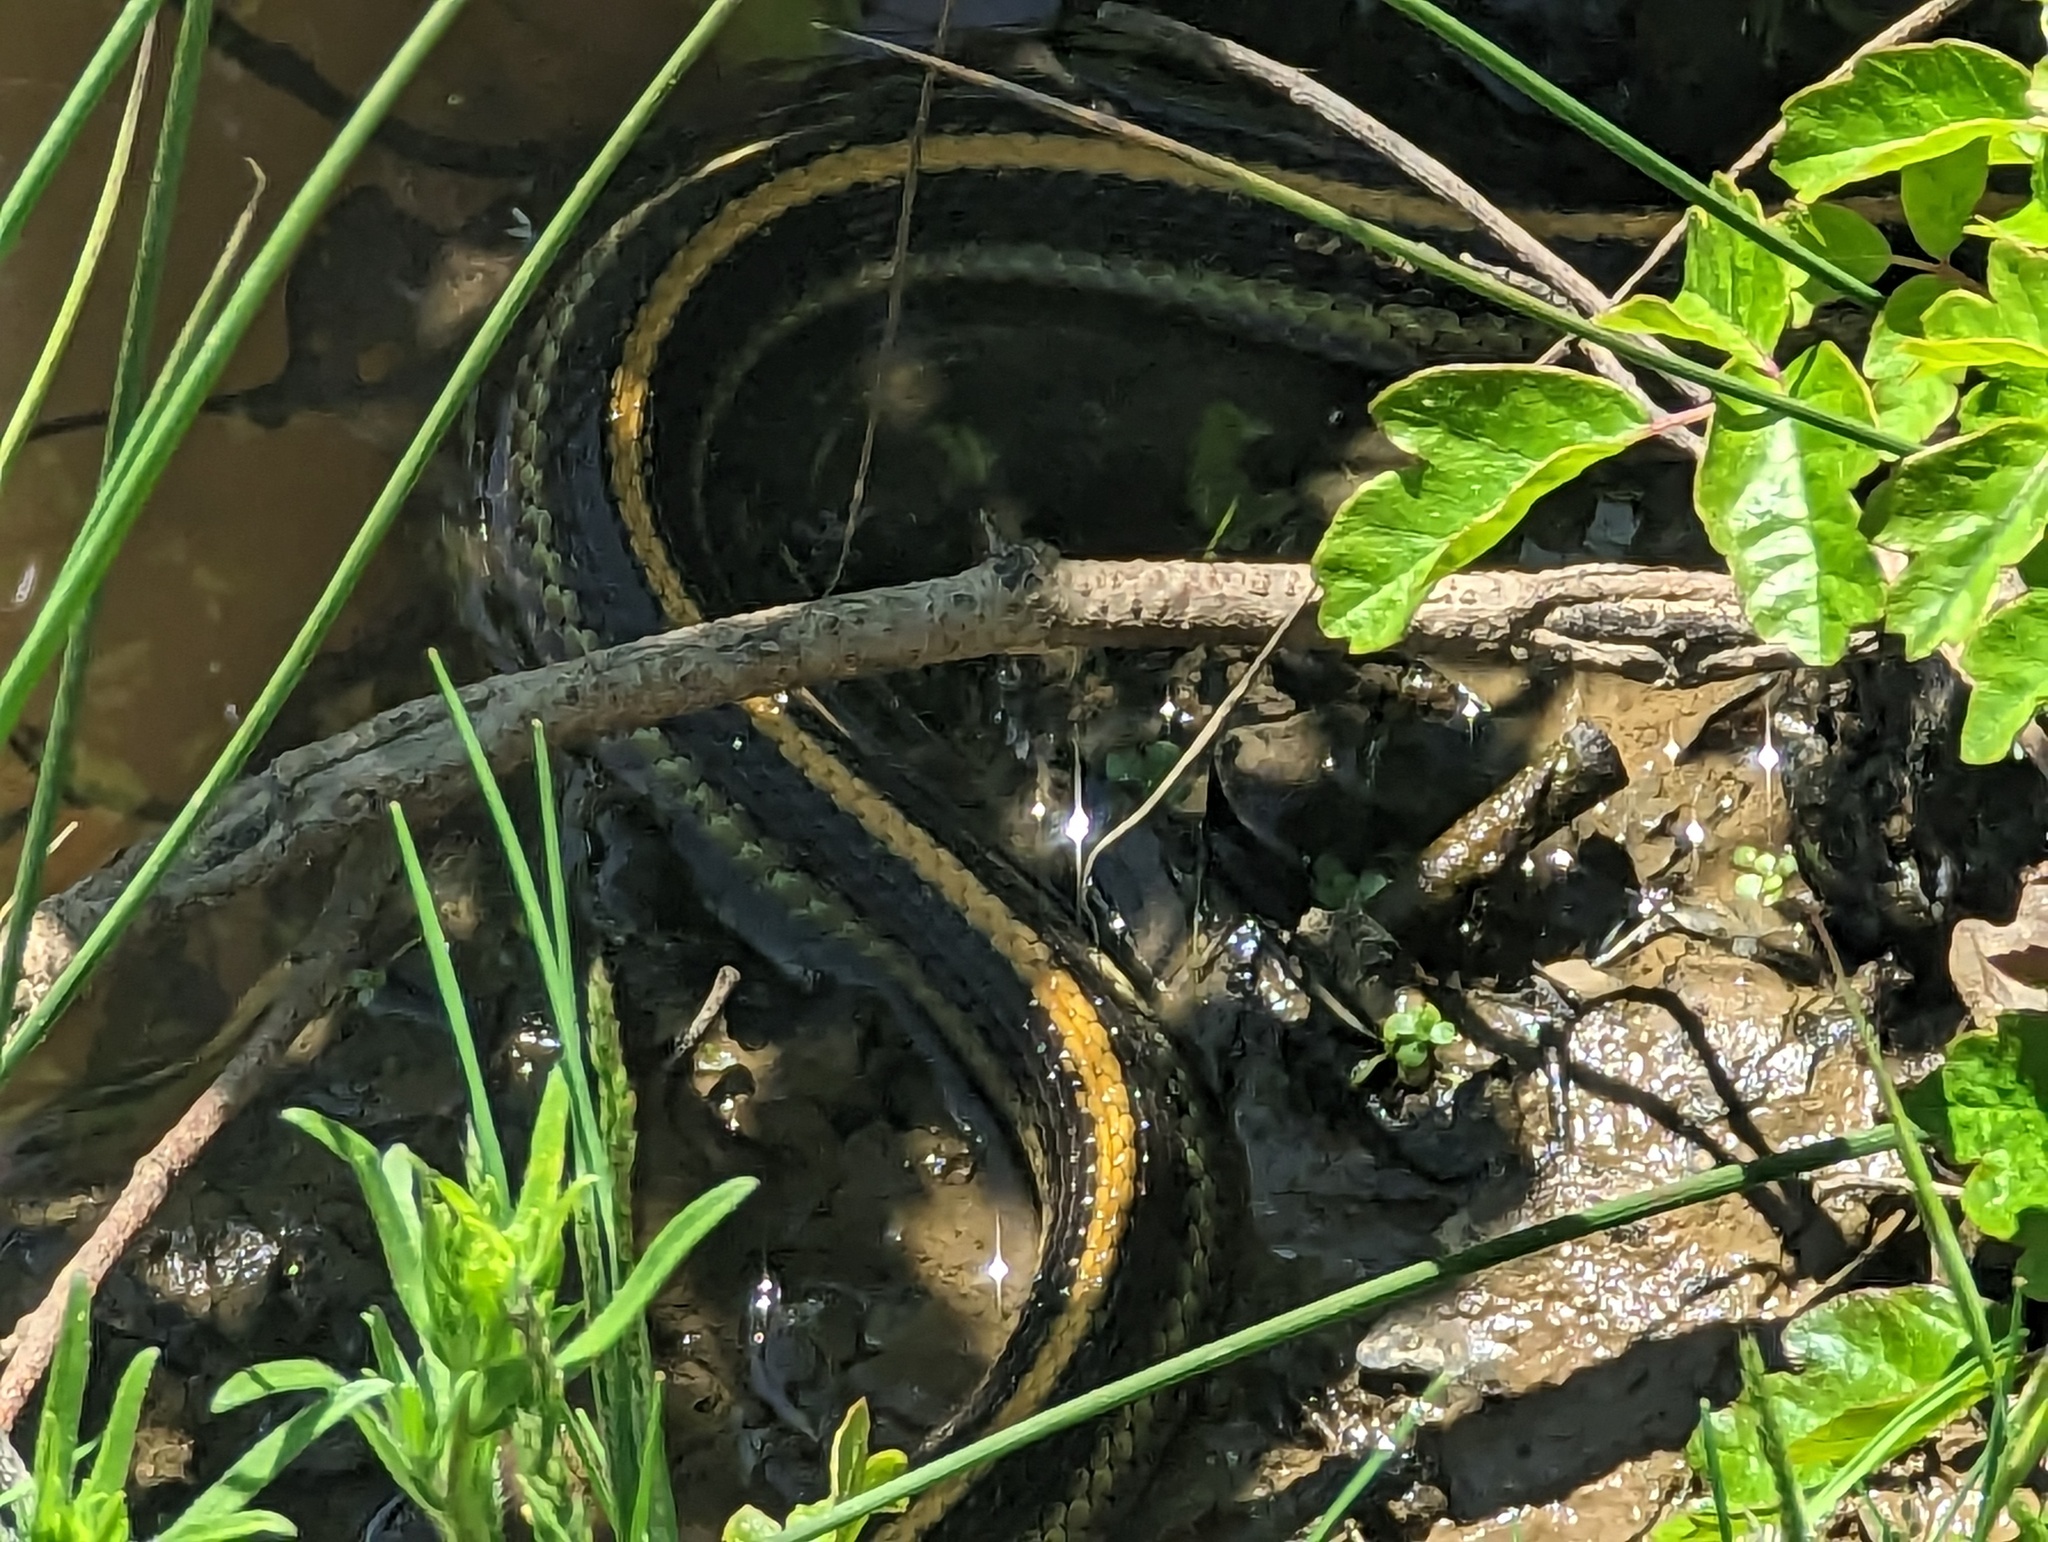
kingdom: Animalia
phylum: Chordata
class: Squamata
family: Colubridae
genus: Thamnophis
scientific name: Thamnophis atratus
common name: Pacific coast aquatic garter snake
